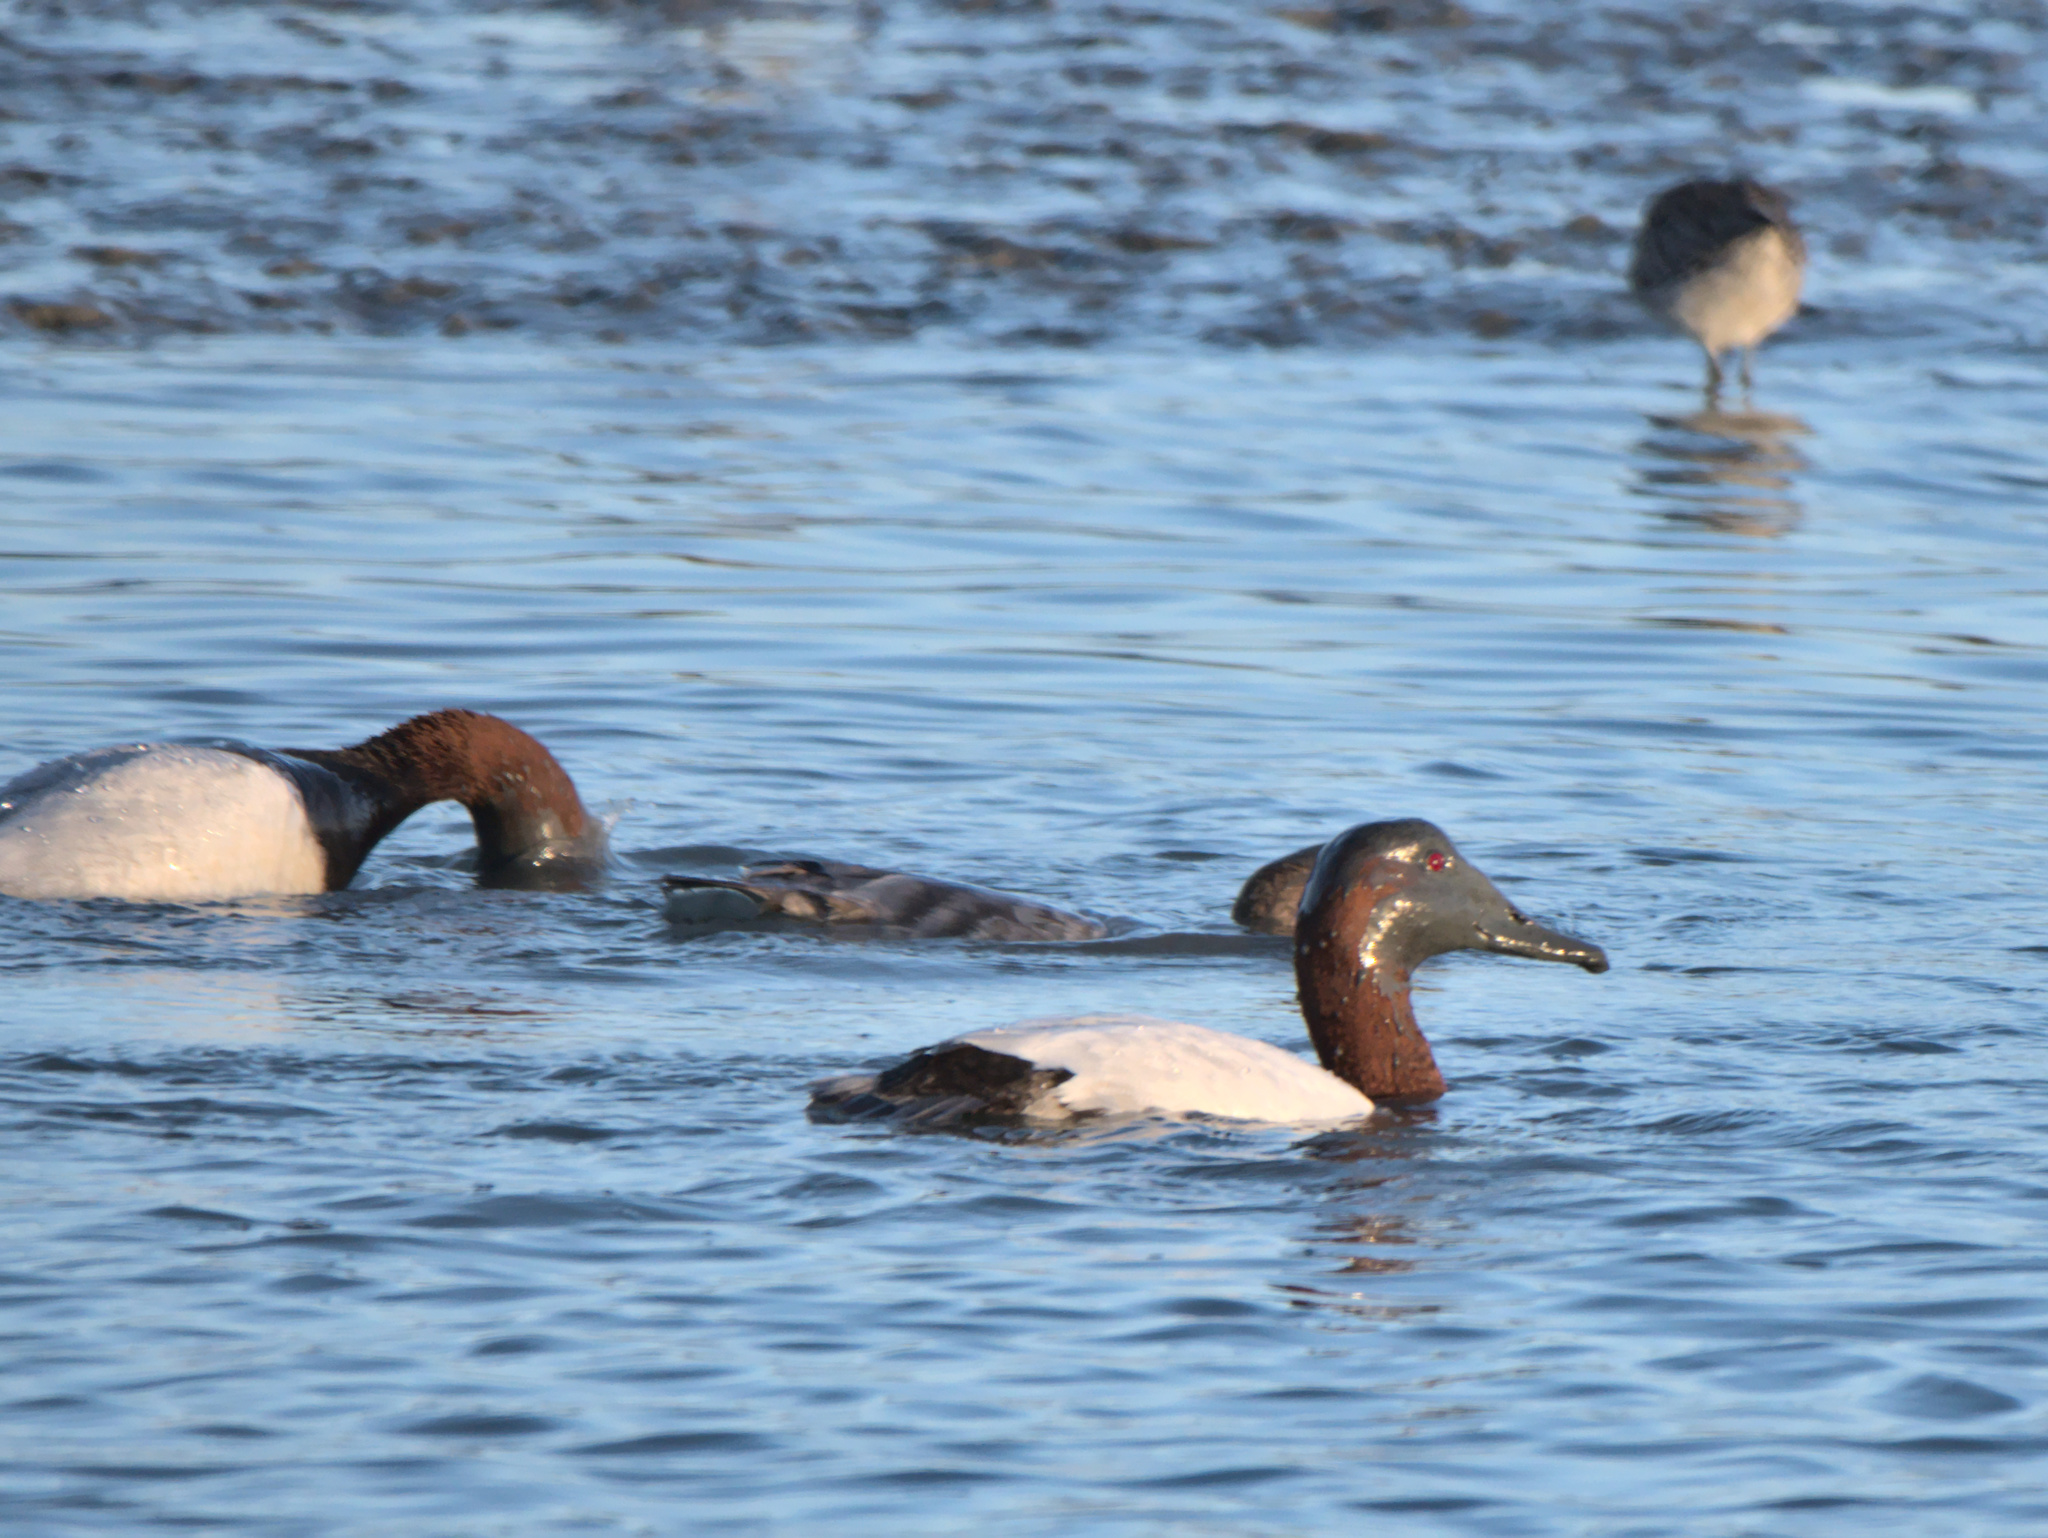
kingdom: Animalia
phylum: Chordata
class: Aves
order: Anseriformes
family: Anatidae
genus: Aythya
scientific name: Aythya valisineria
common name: Canvasback
